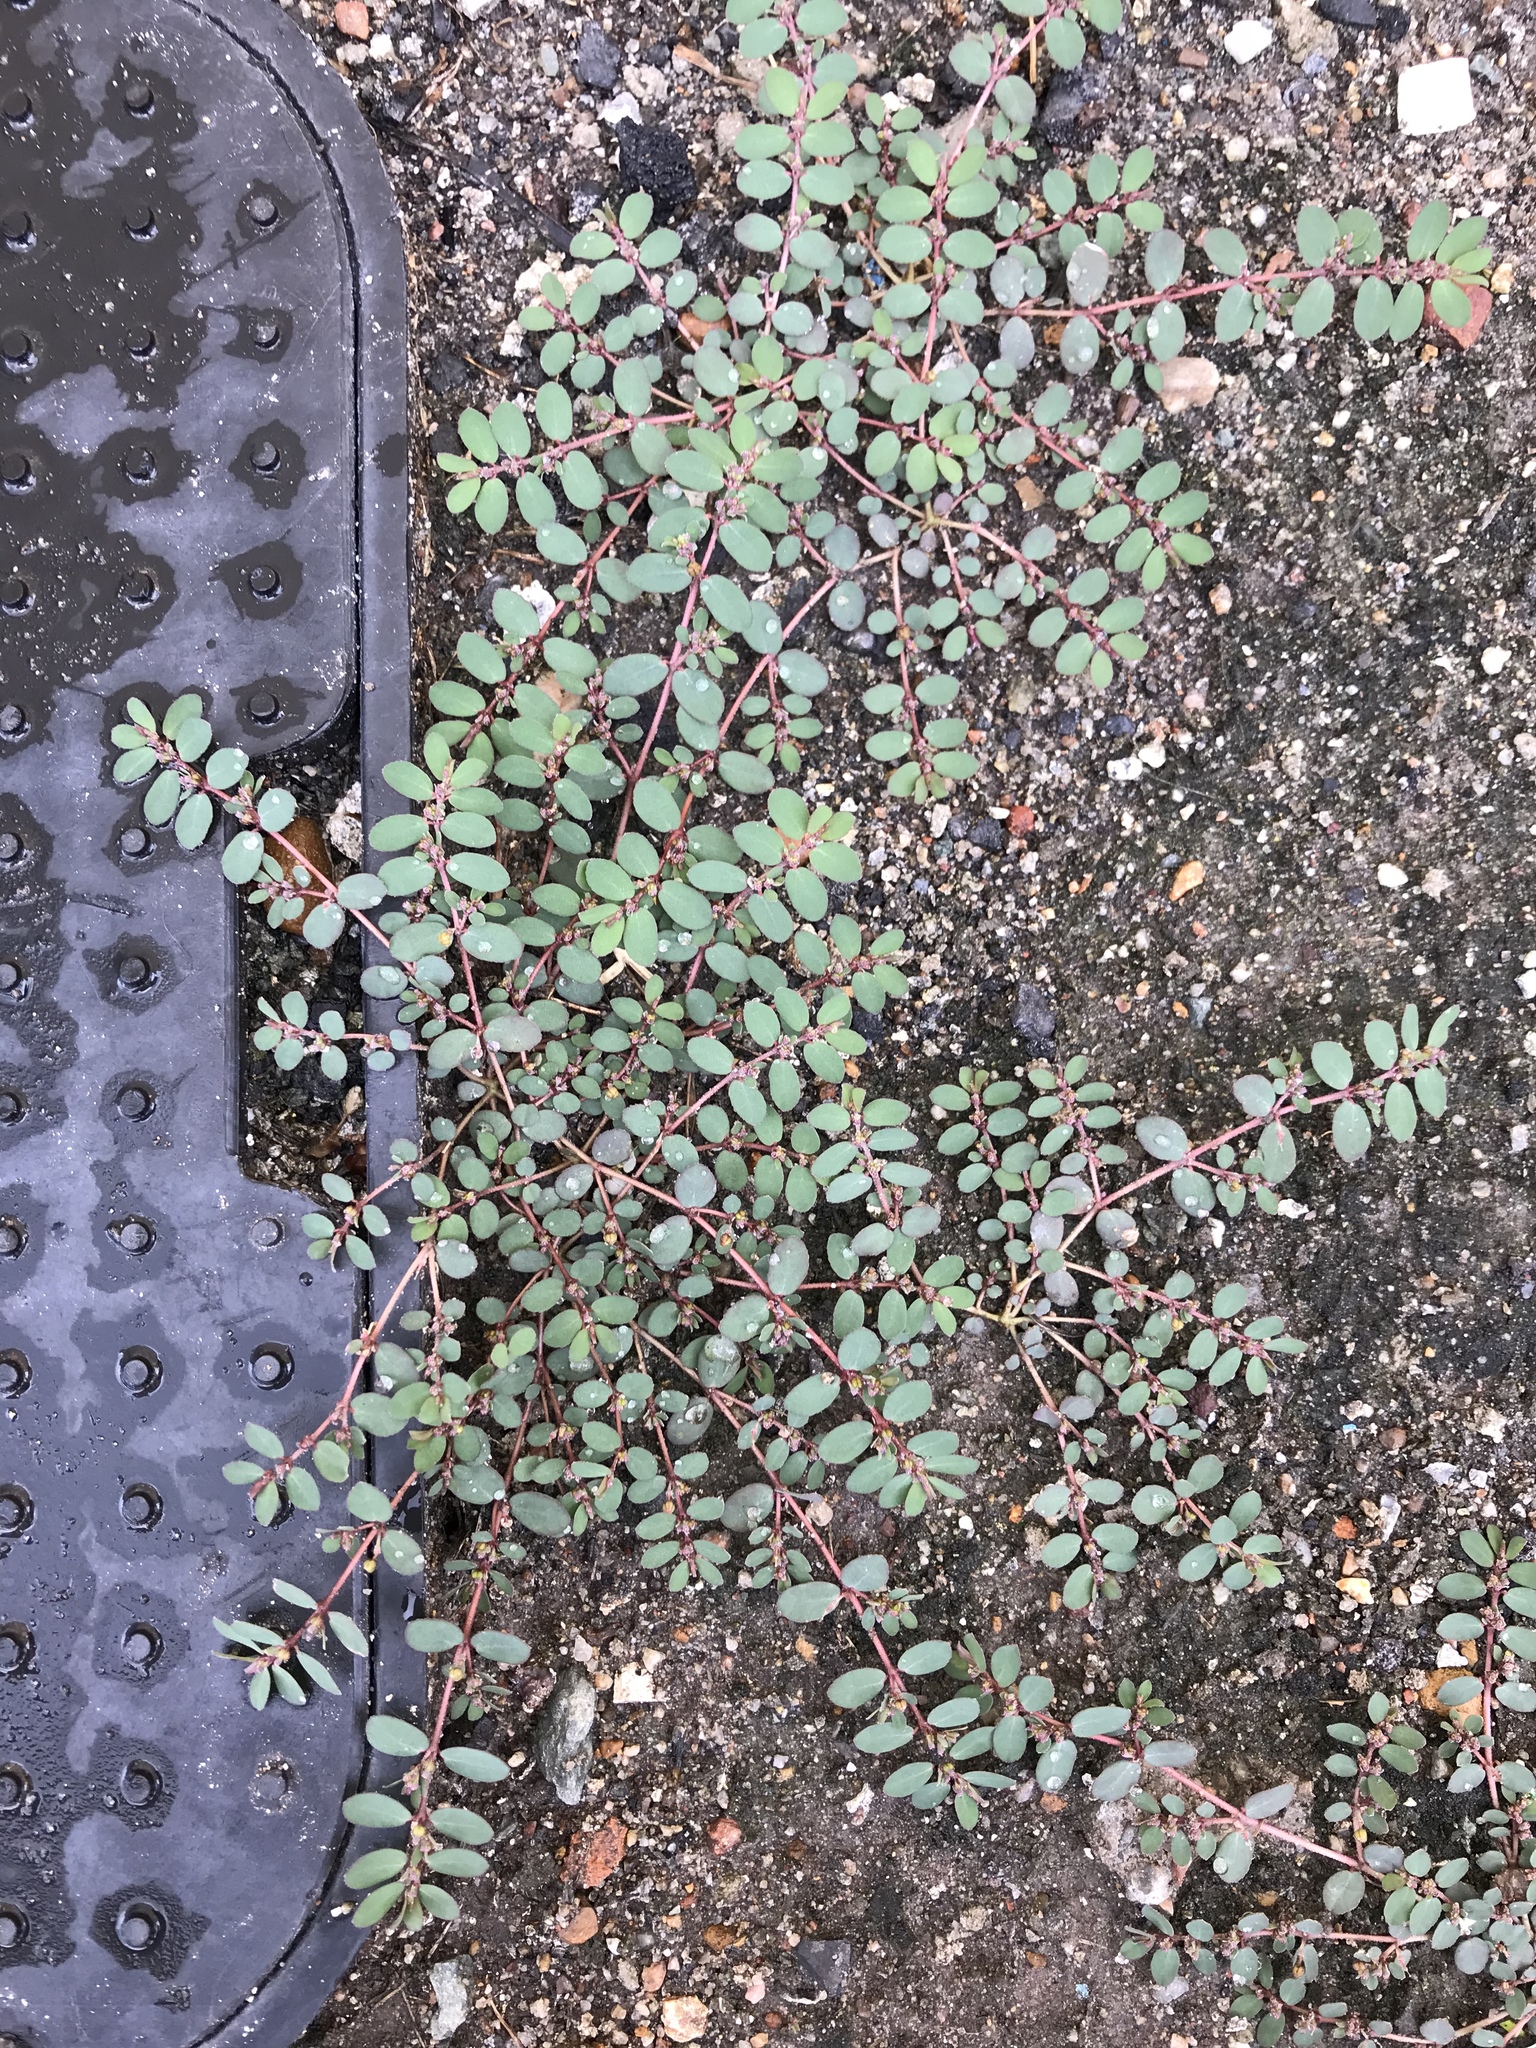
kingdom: Plantae
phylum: Tracheophyta
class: Magnoliopsida
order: Malpighiales
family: Euphorbiaceae
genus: Euphorbia
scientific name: Euphorbia prostrata
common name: Prostrate sandmat
